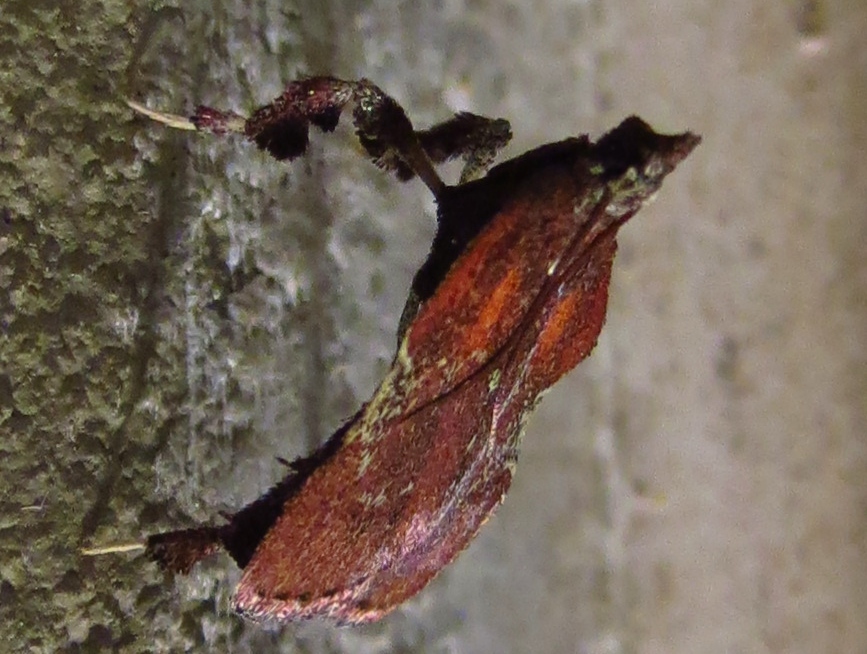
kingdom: Animalia
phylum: Arthropoda
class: Insecta
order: Lepidoptera
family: Pyralidae
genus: Galasa
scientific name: Galasa nigrinodis
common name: Boxwood leaftier moth
